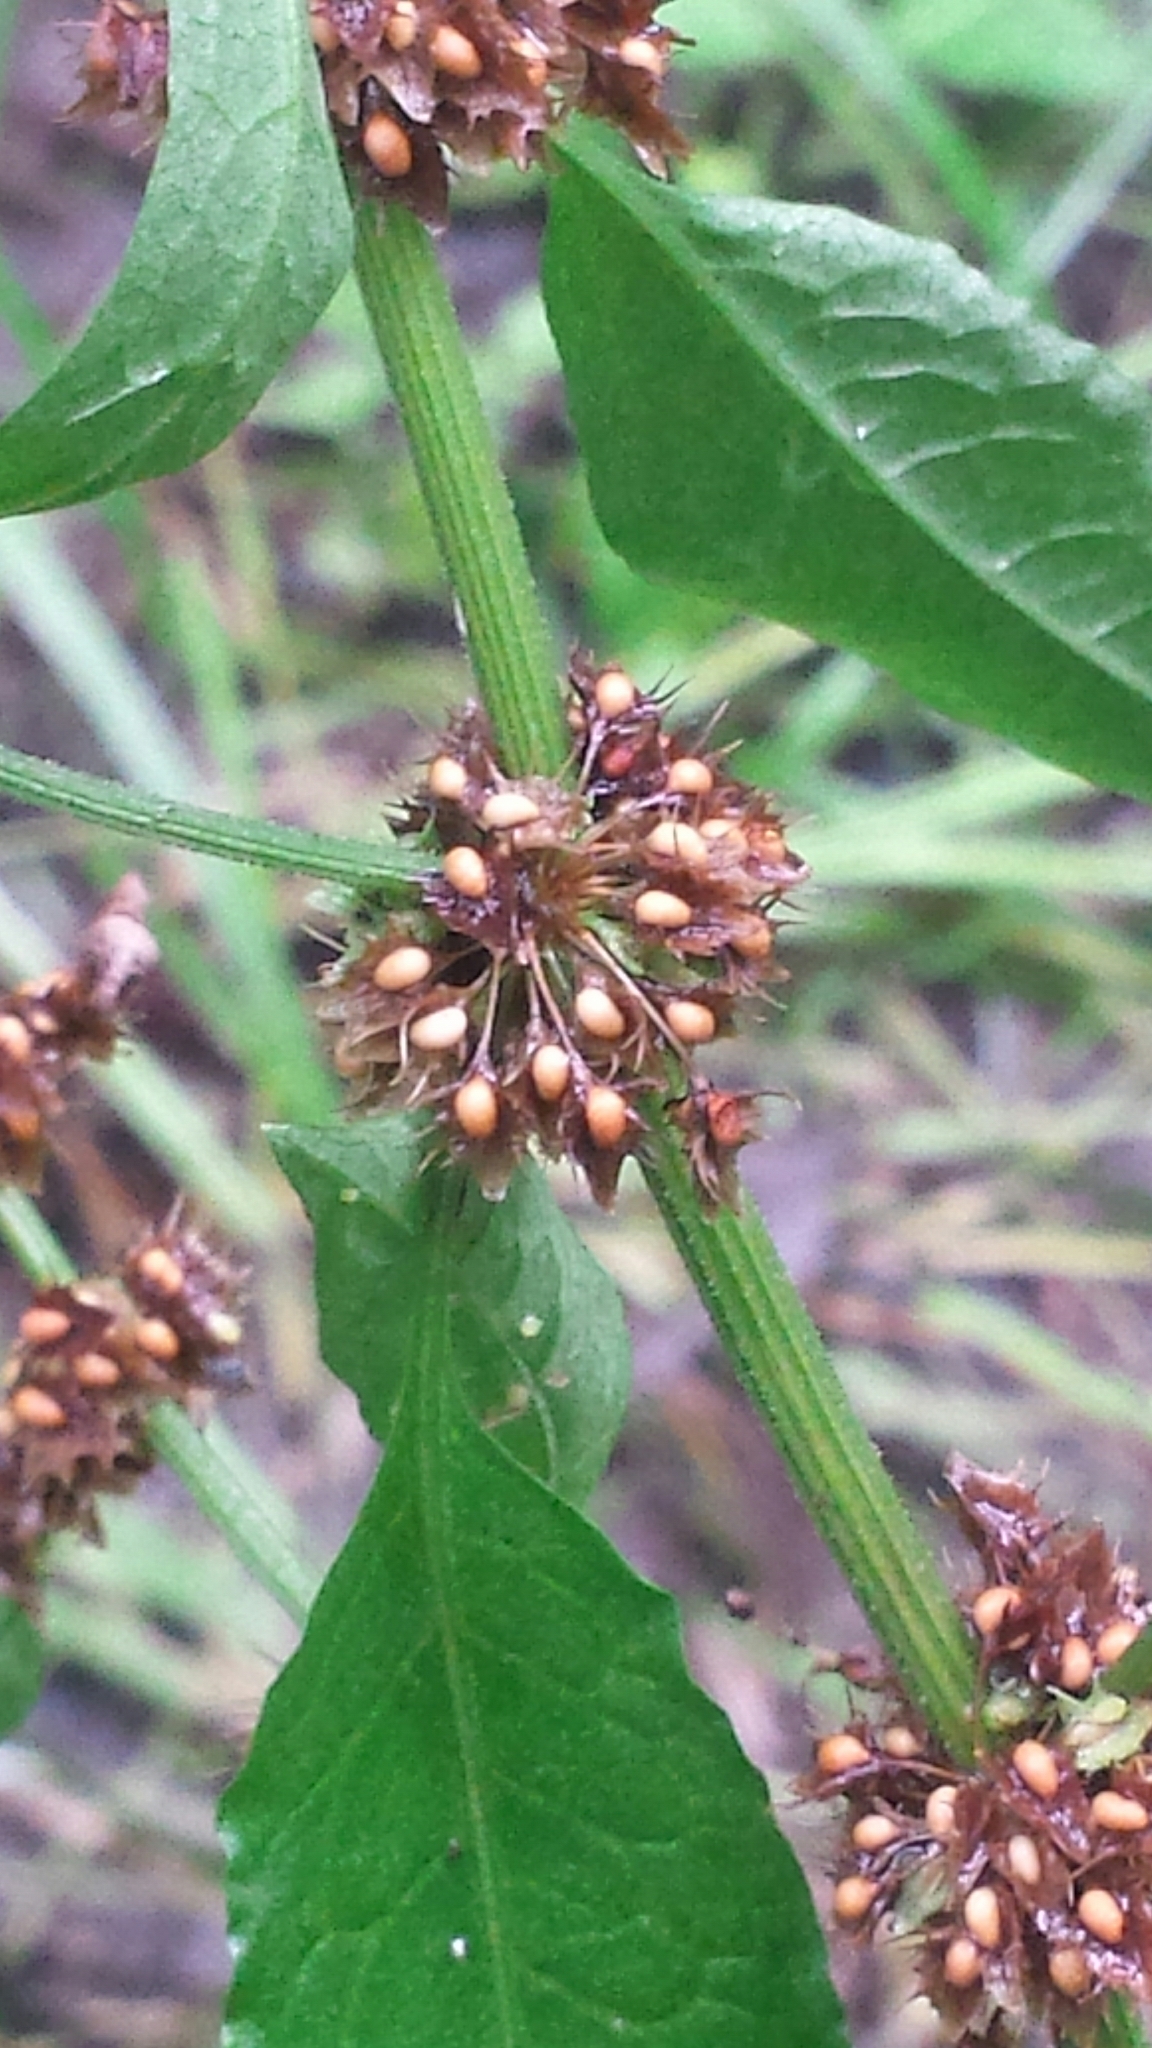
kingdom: Plantae
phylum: Tracheophyta
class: Magnoliopsida
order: Caryophyllales
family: Polygonaceae
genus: Rumex
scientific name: Rumex obtusifolius
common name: Bitter dock
